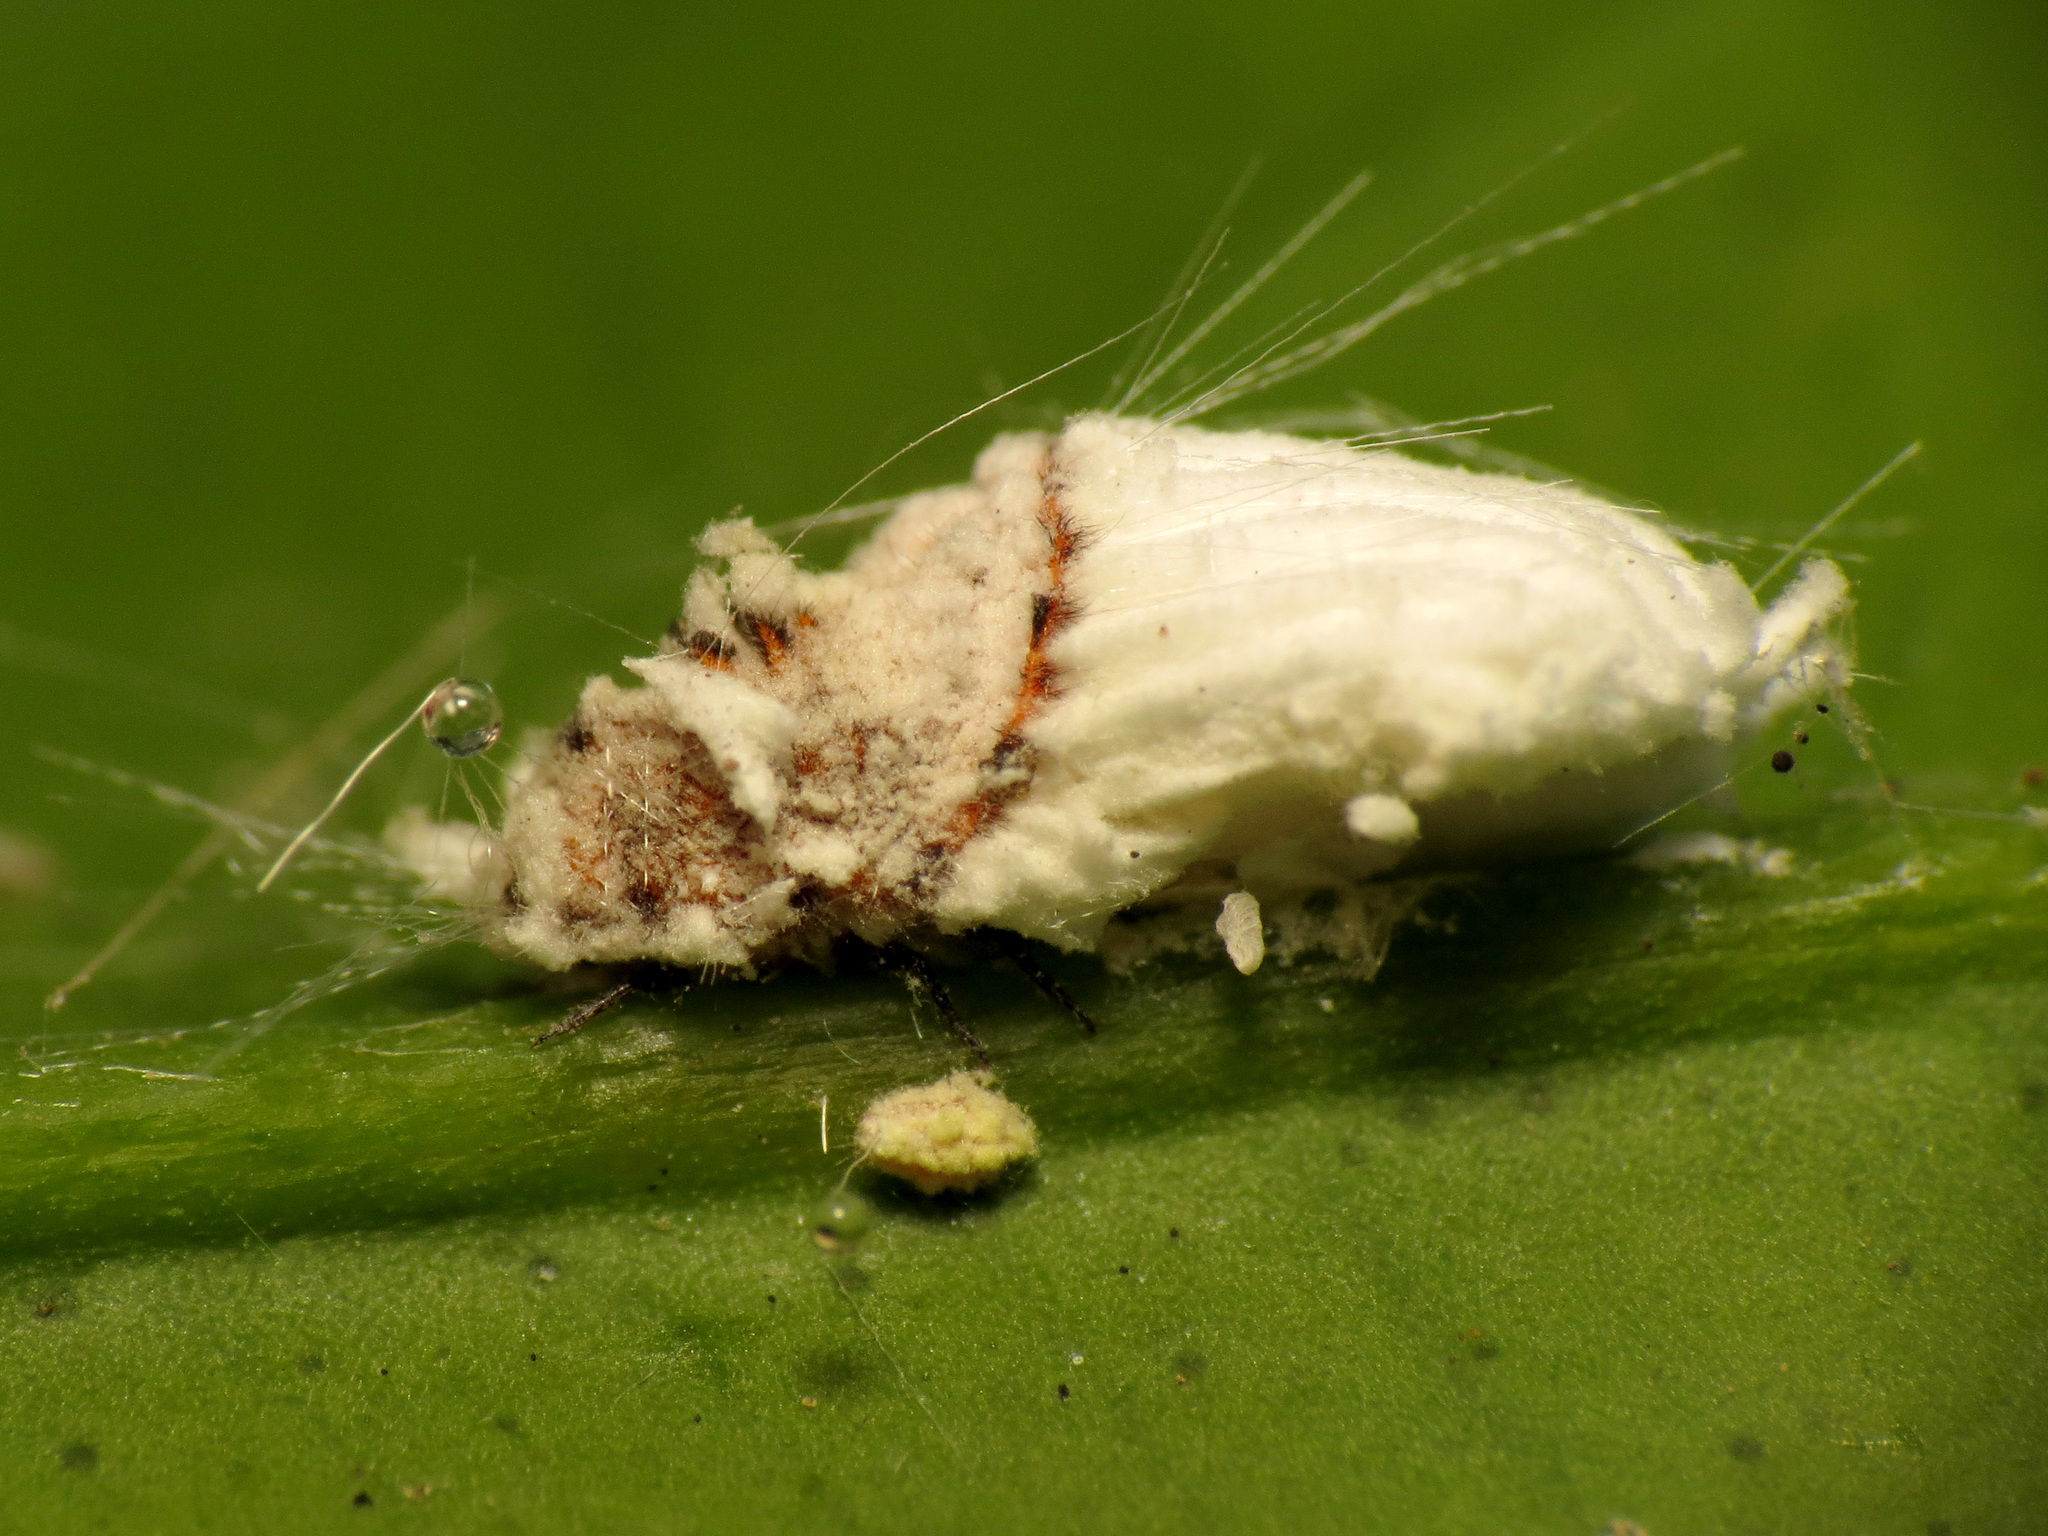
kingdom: Animalia
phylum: Arthropoda
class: Insecta
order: Hemiptera
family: Margarodidae
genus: Icerya
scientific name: Icerya purchasi
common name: Cottony cushion scale
